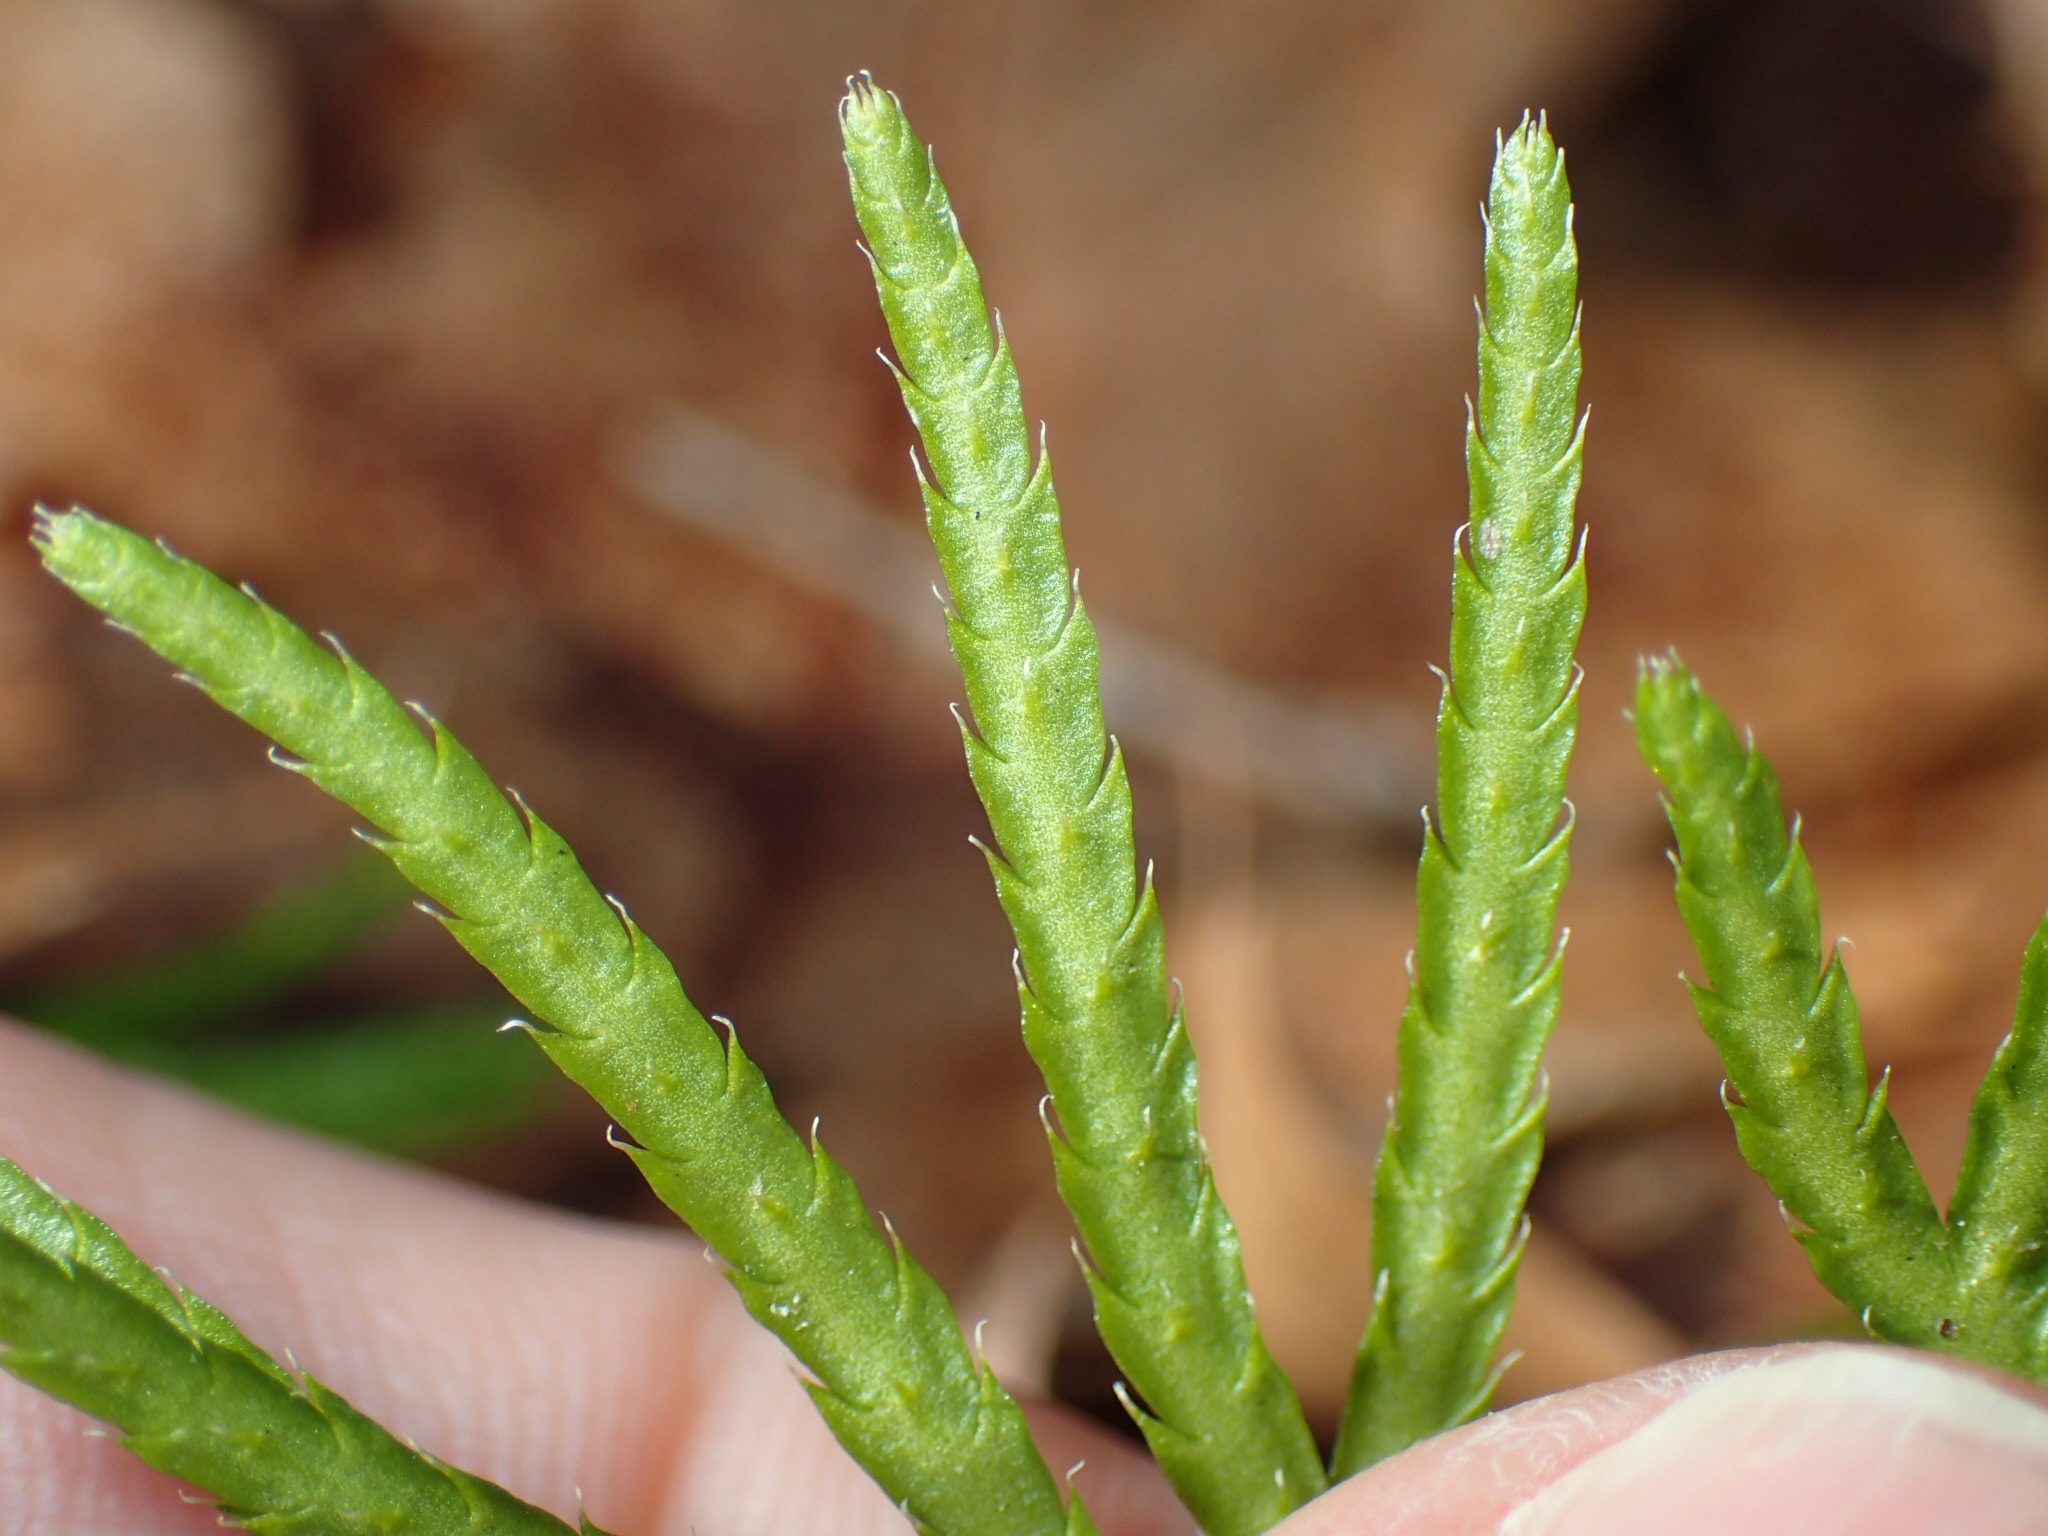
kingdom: Plantae
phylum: Tracheophyta
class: Lycopodiopsida
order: Lycopodiales
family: Lycopodiaceae
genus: Diphasiastrum
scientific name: Diphasiastrum digitatum
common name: Southern running-pine
